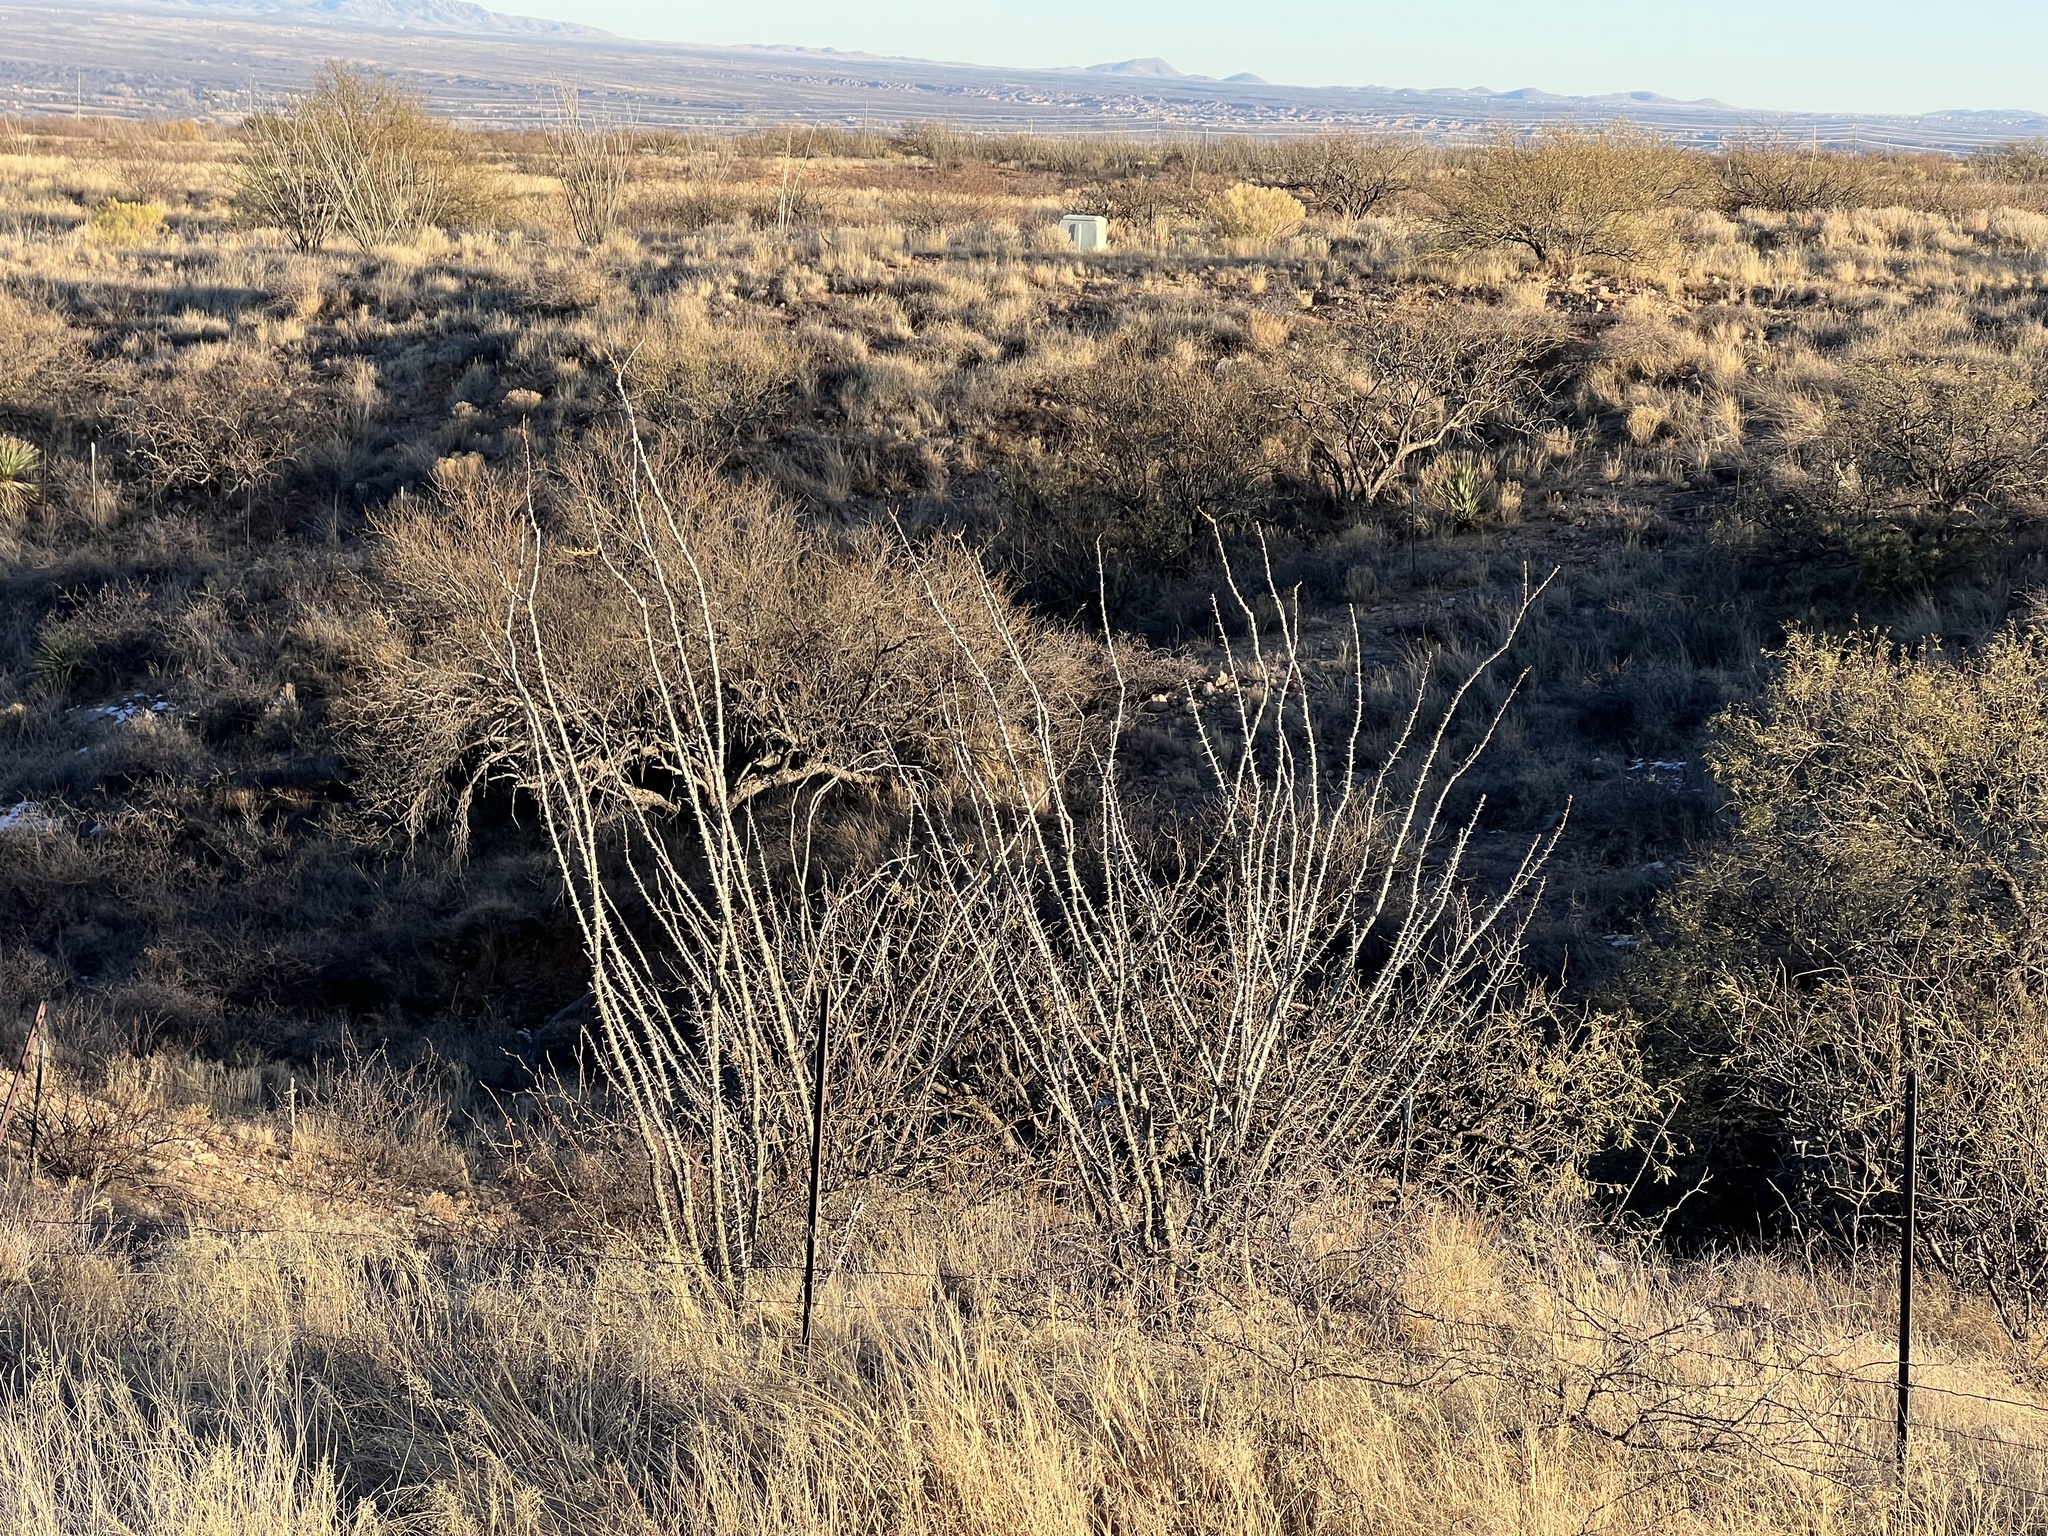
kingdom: Plantae
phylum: Tracheophyta
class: Magnoliopsida
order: Ericales
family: Fouquieriaceae
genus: Fouquieria
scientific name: Fouquieria splendens
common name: Vine-cactus
